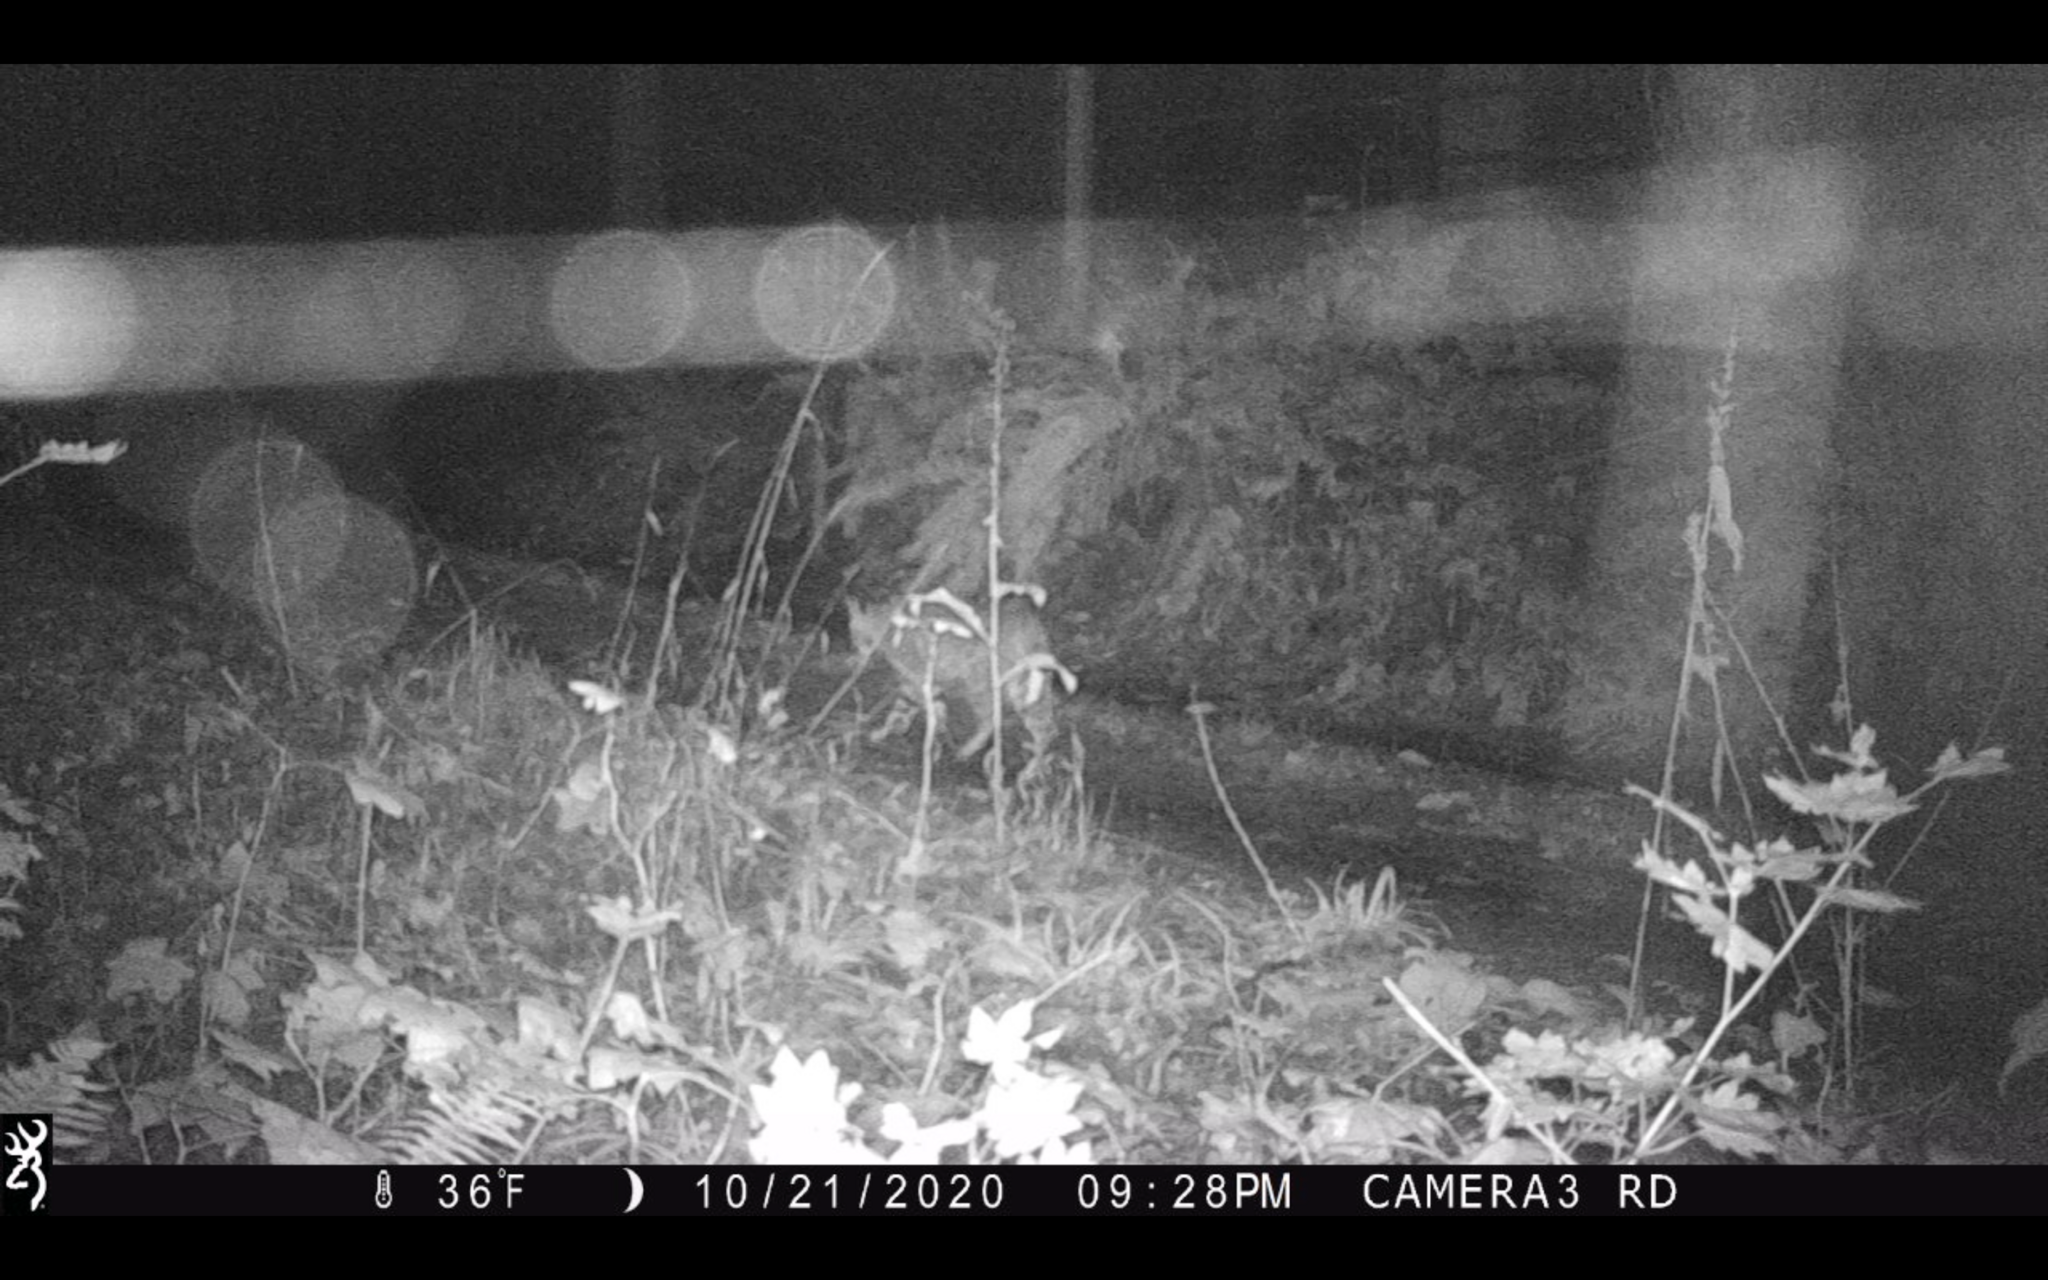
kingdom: Animalia
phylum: Chordata
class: Mammalia
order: Carnivora
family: Felidae
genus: Lynx
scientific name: Lynx rufus
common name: Bobcat
